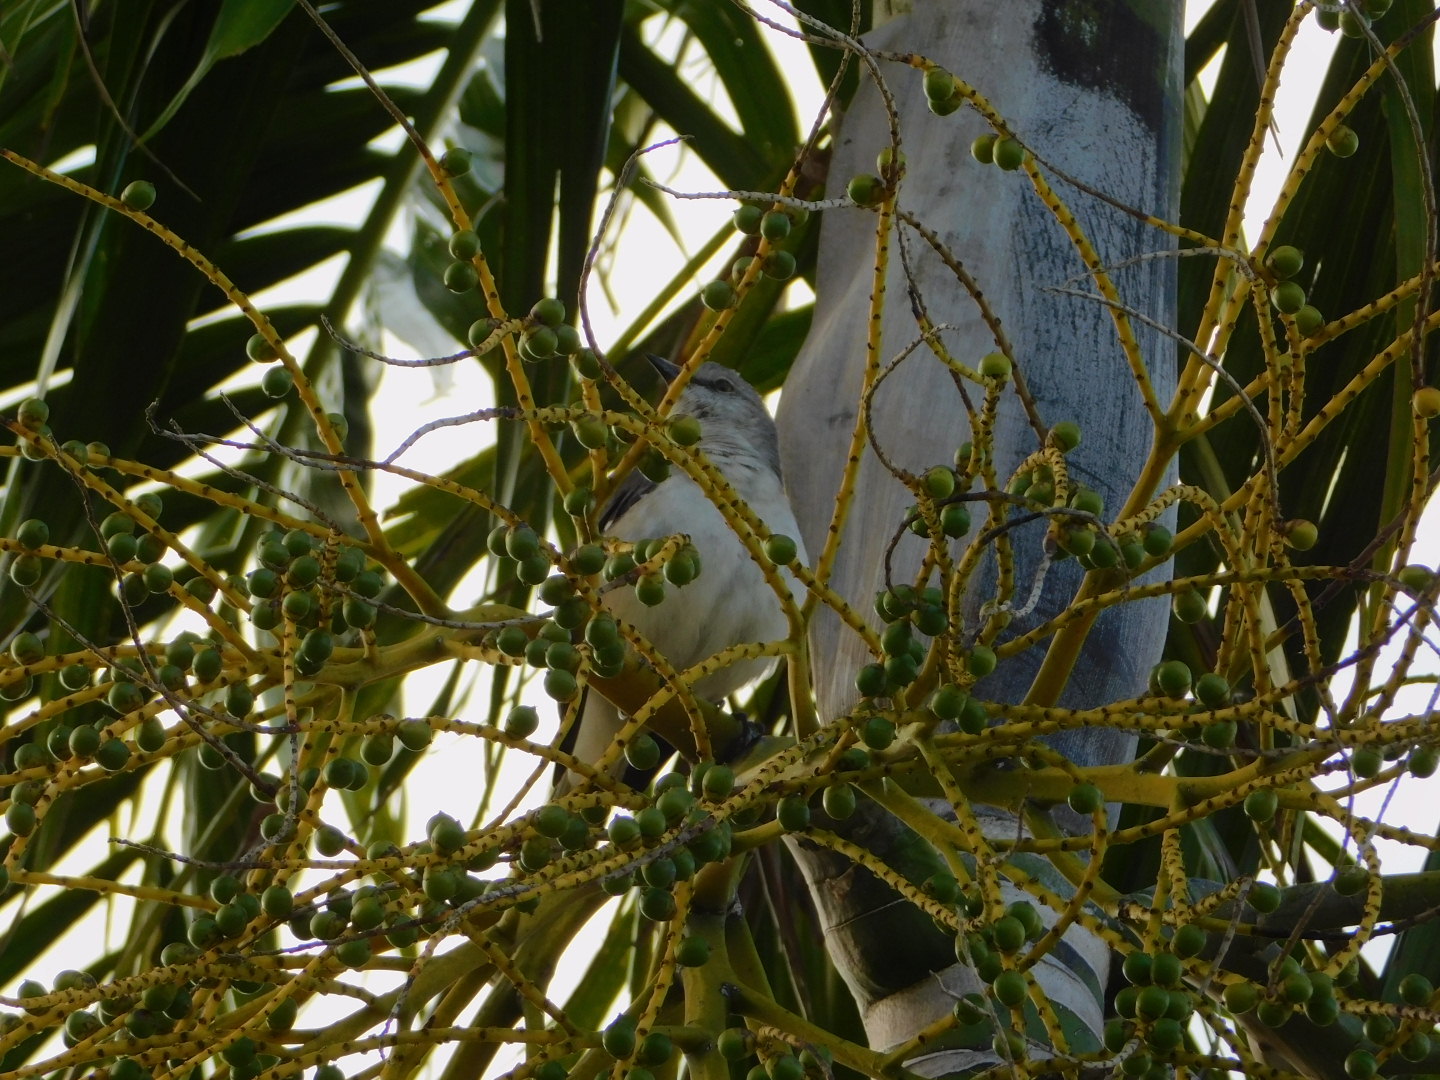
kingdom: Animalia
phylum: Chordata
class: Aves
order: Passeriformes
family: Mimidae
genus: Mimus
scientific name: Mimus polyglottos
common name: Northern mockingbird
